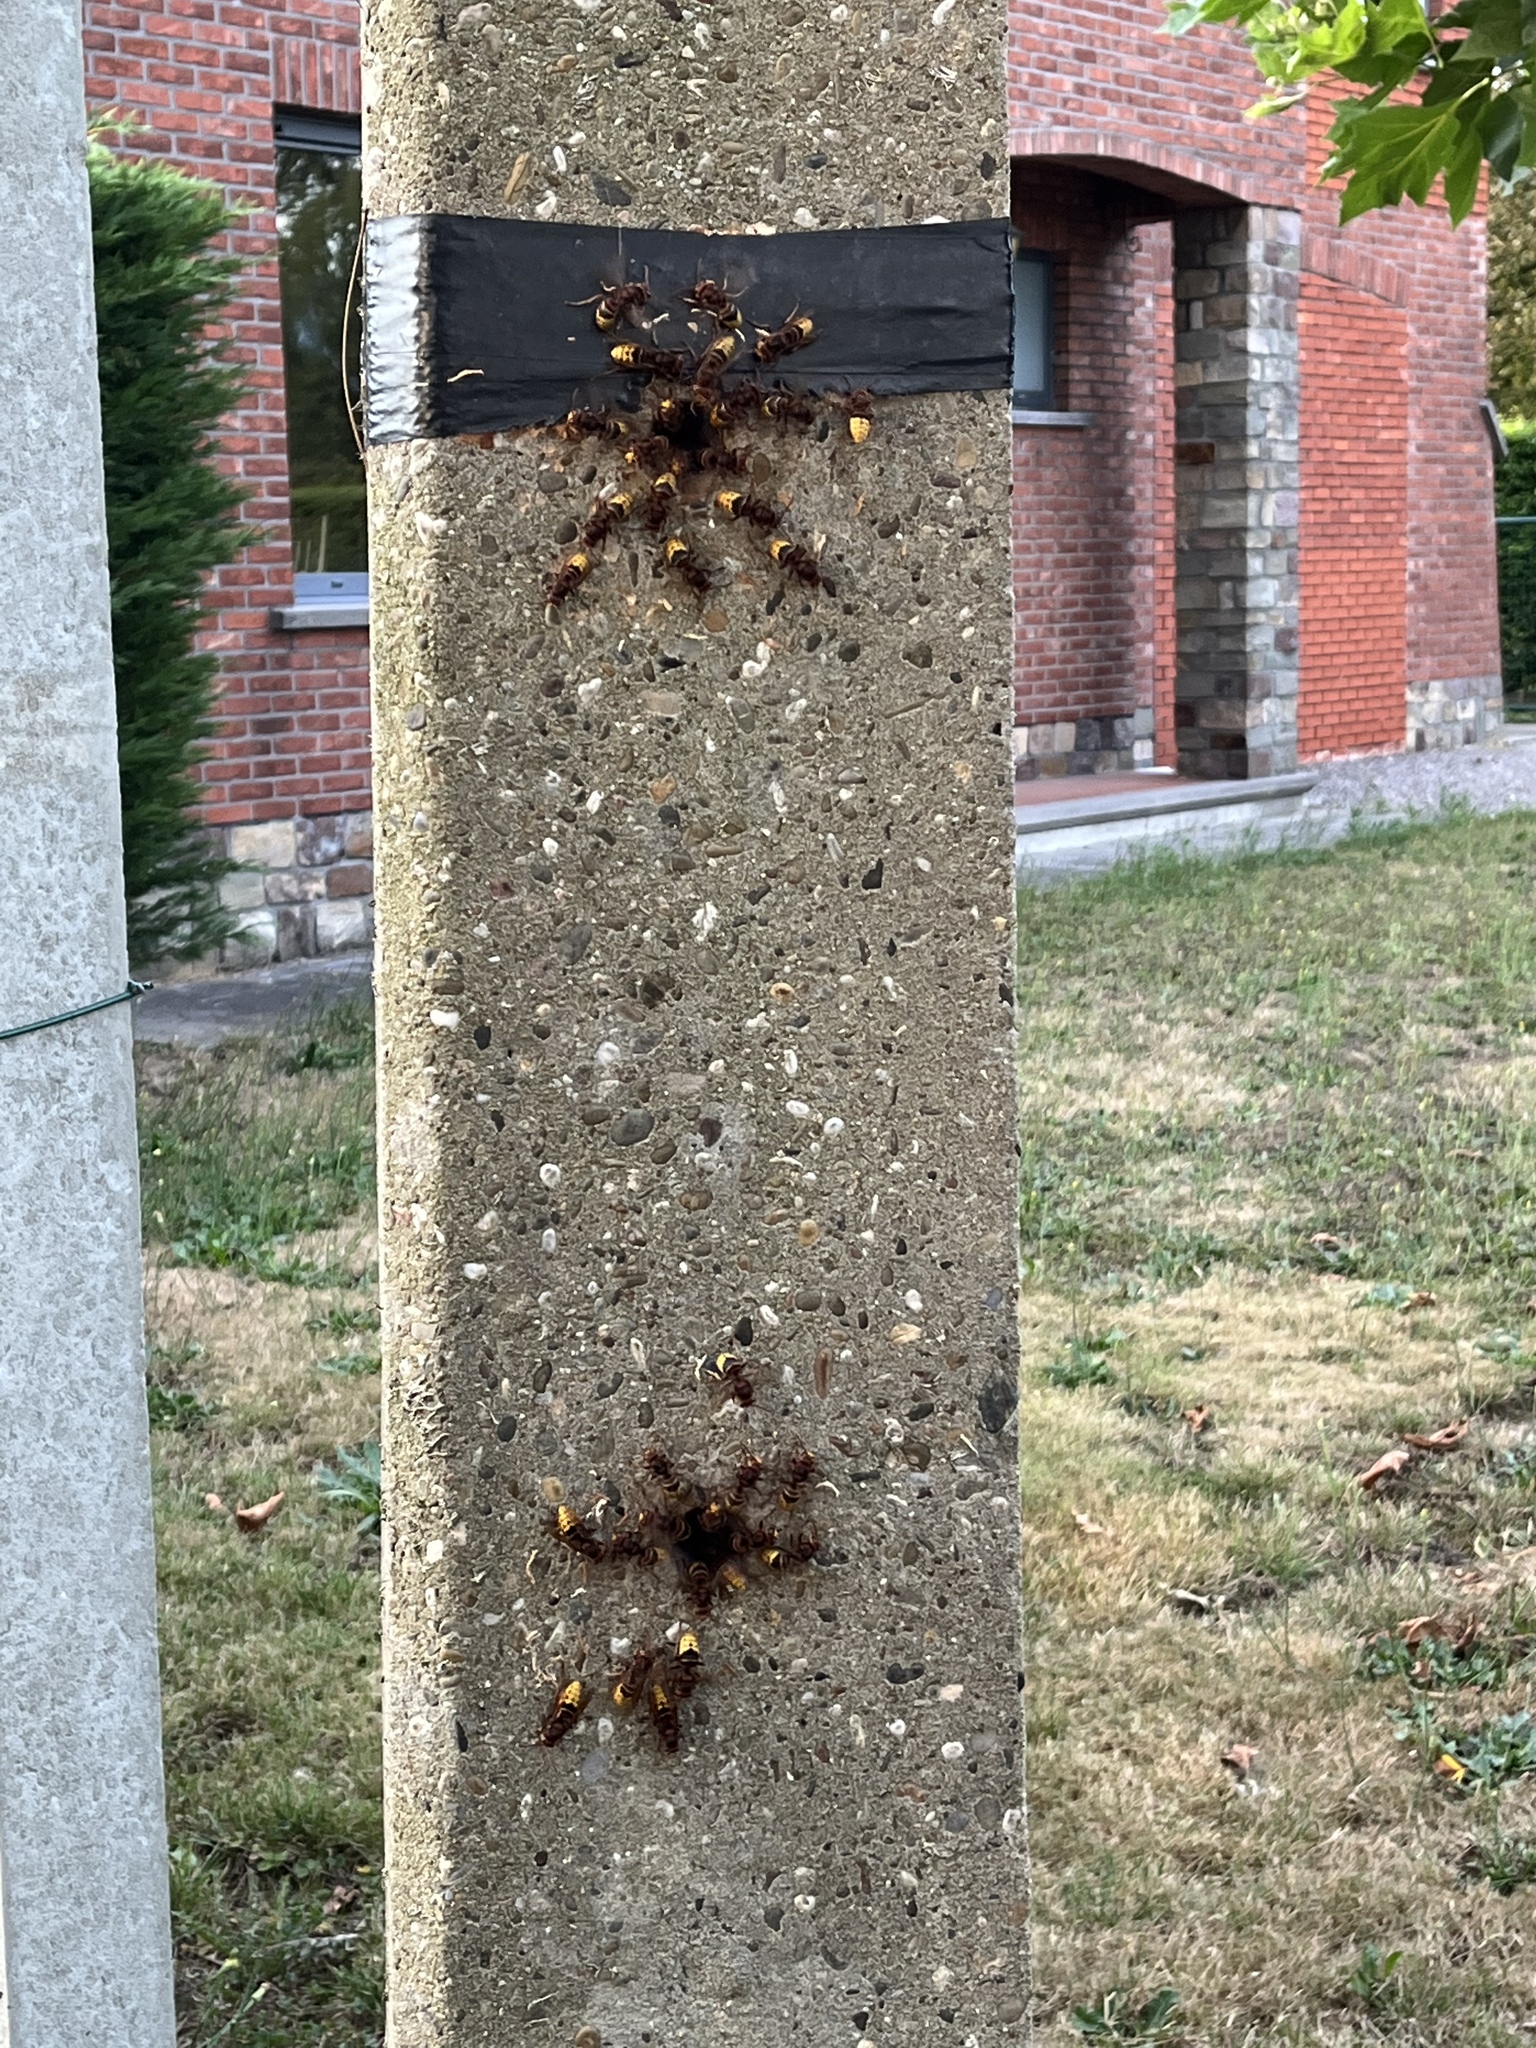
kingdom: Animalia
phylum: Arthropoda
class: Insecta
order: Hymenoptera
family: Vespidae
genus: Vespa
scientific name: Vespa crabro
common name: Hornet
